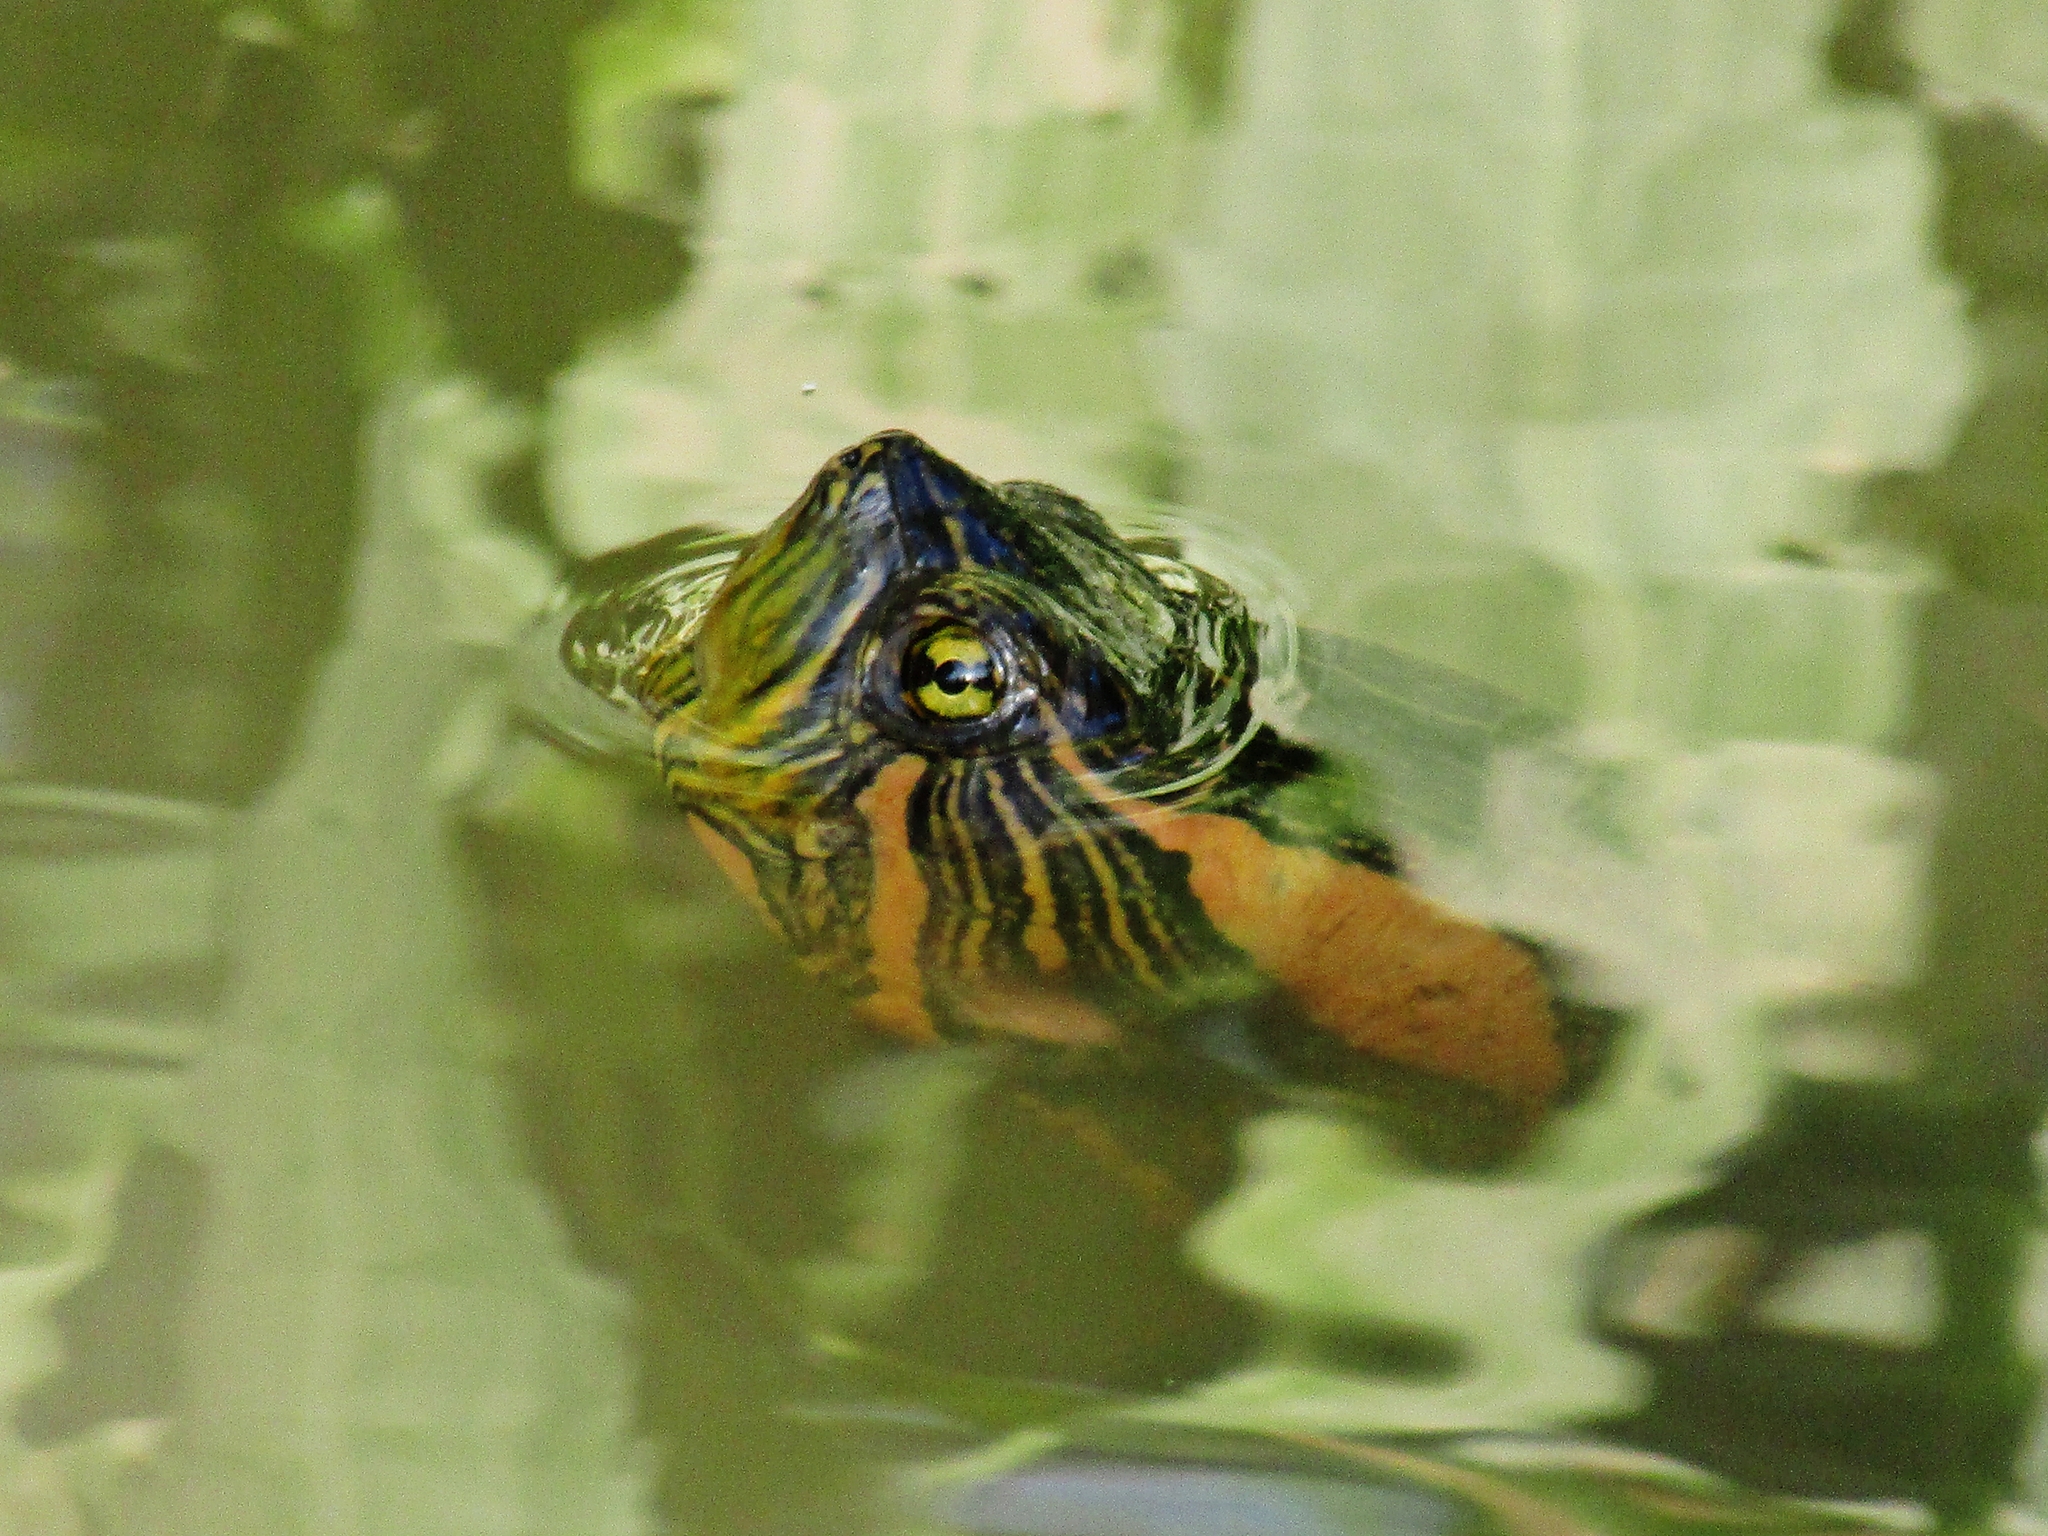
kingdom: Animalia
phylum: Chordata
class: Testudines
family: Emydidae
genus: Trachemys
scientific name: Trachemys dorbigni
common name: Black-bellied slider
